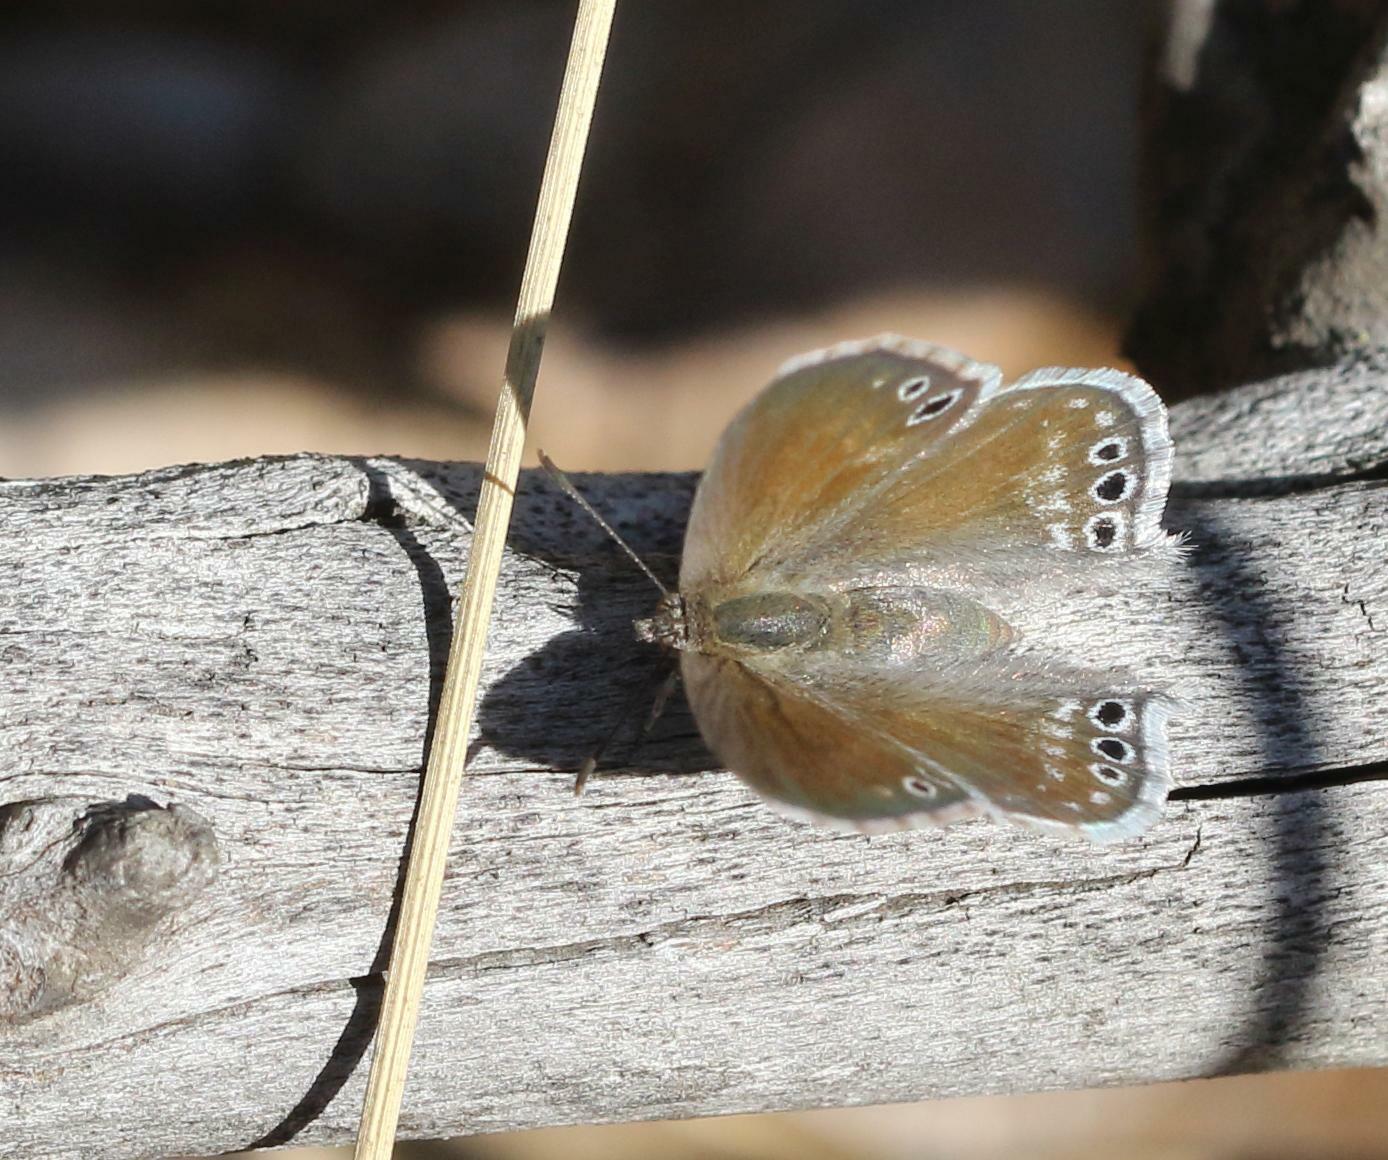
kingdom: Animalia
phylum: Arthropoda
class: Insecta
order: Lepidoptera
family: Lycaenidae
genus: Leptomyrina
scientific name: Leptomyrina gorgias
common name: Common black-eye
